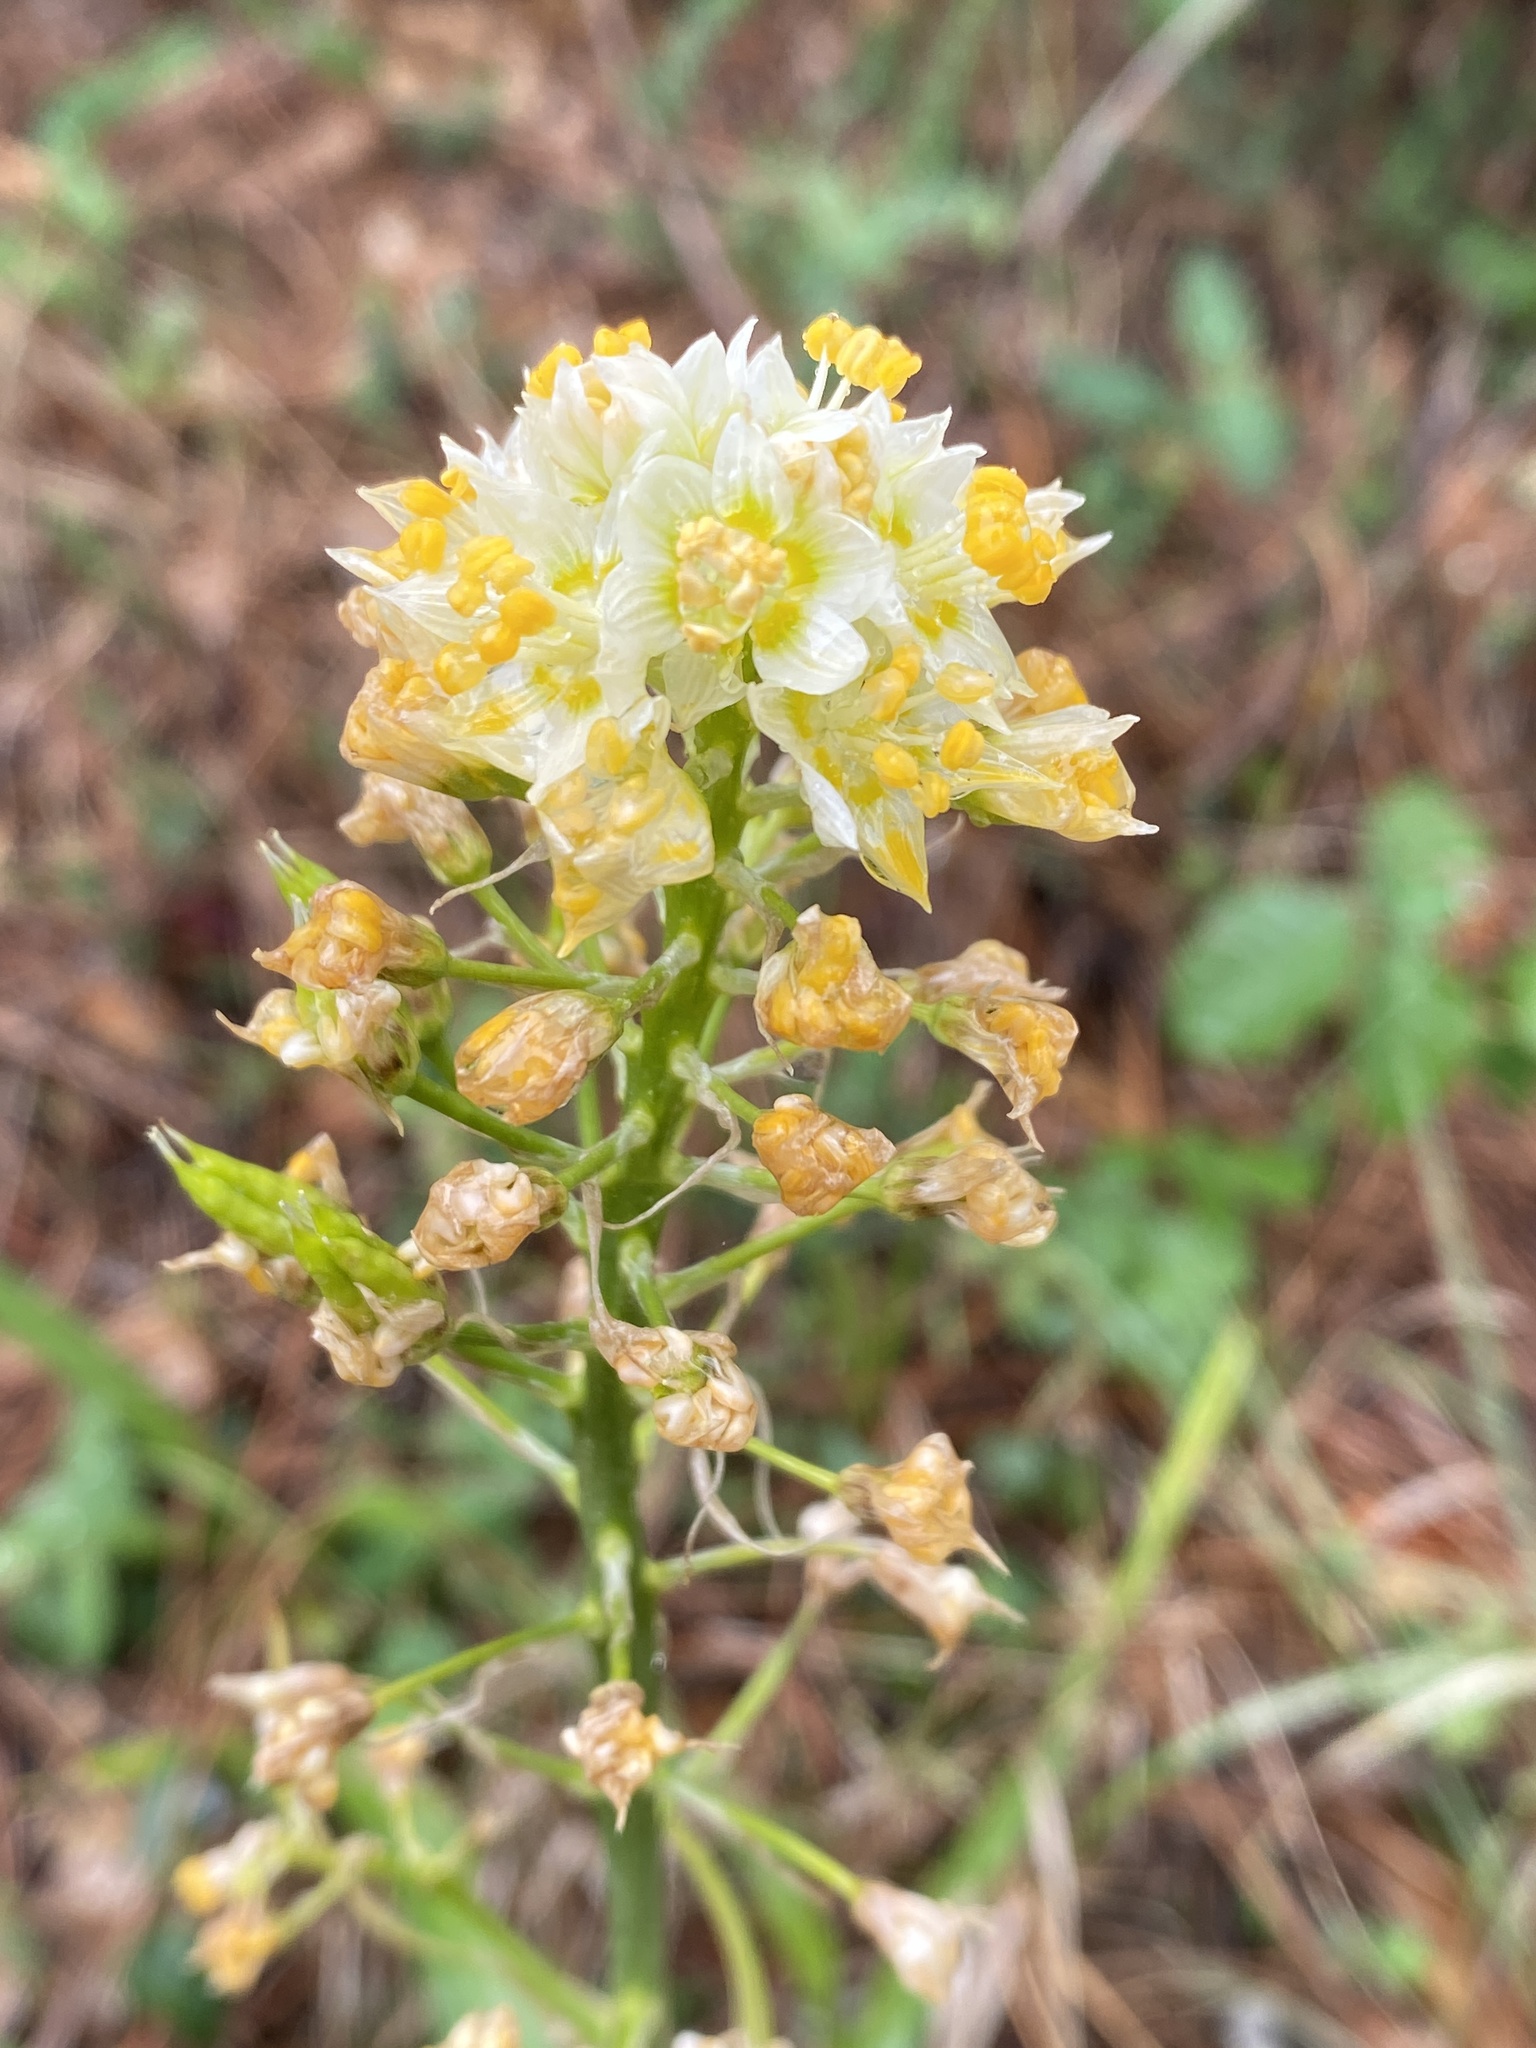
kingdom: Plantae
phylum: Tracheophyta
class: Liliopsida
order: Liliales
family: Melanthiaceae
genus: Toxicoscordion
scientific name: Toxicoscordion fremontii
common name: Fremont's death camas
